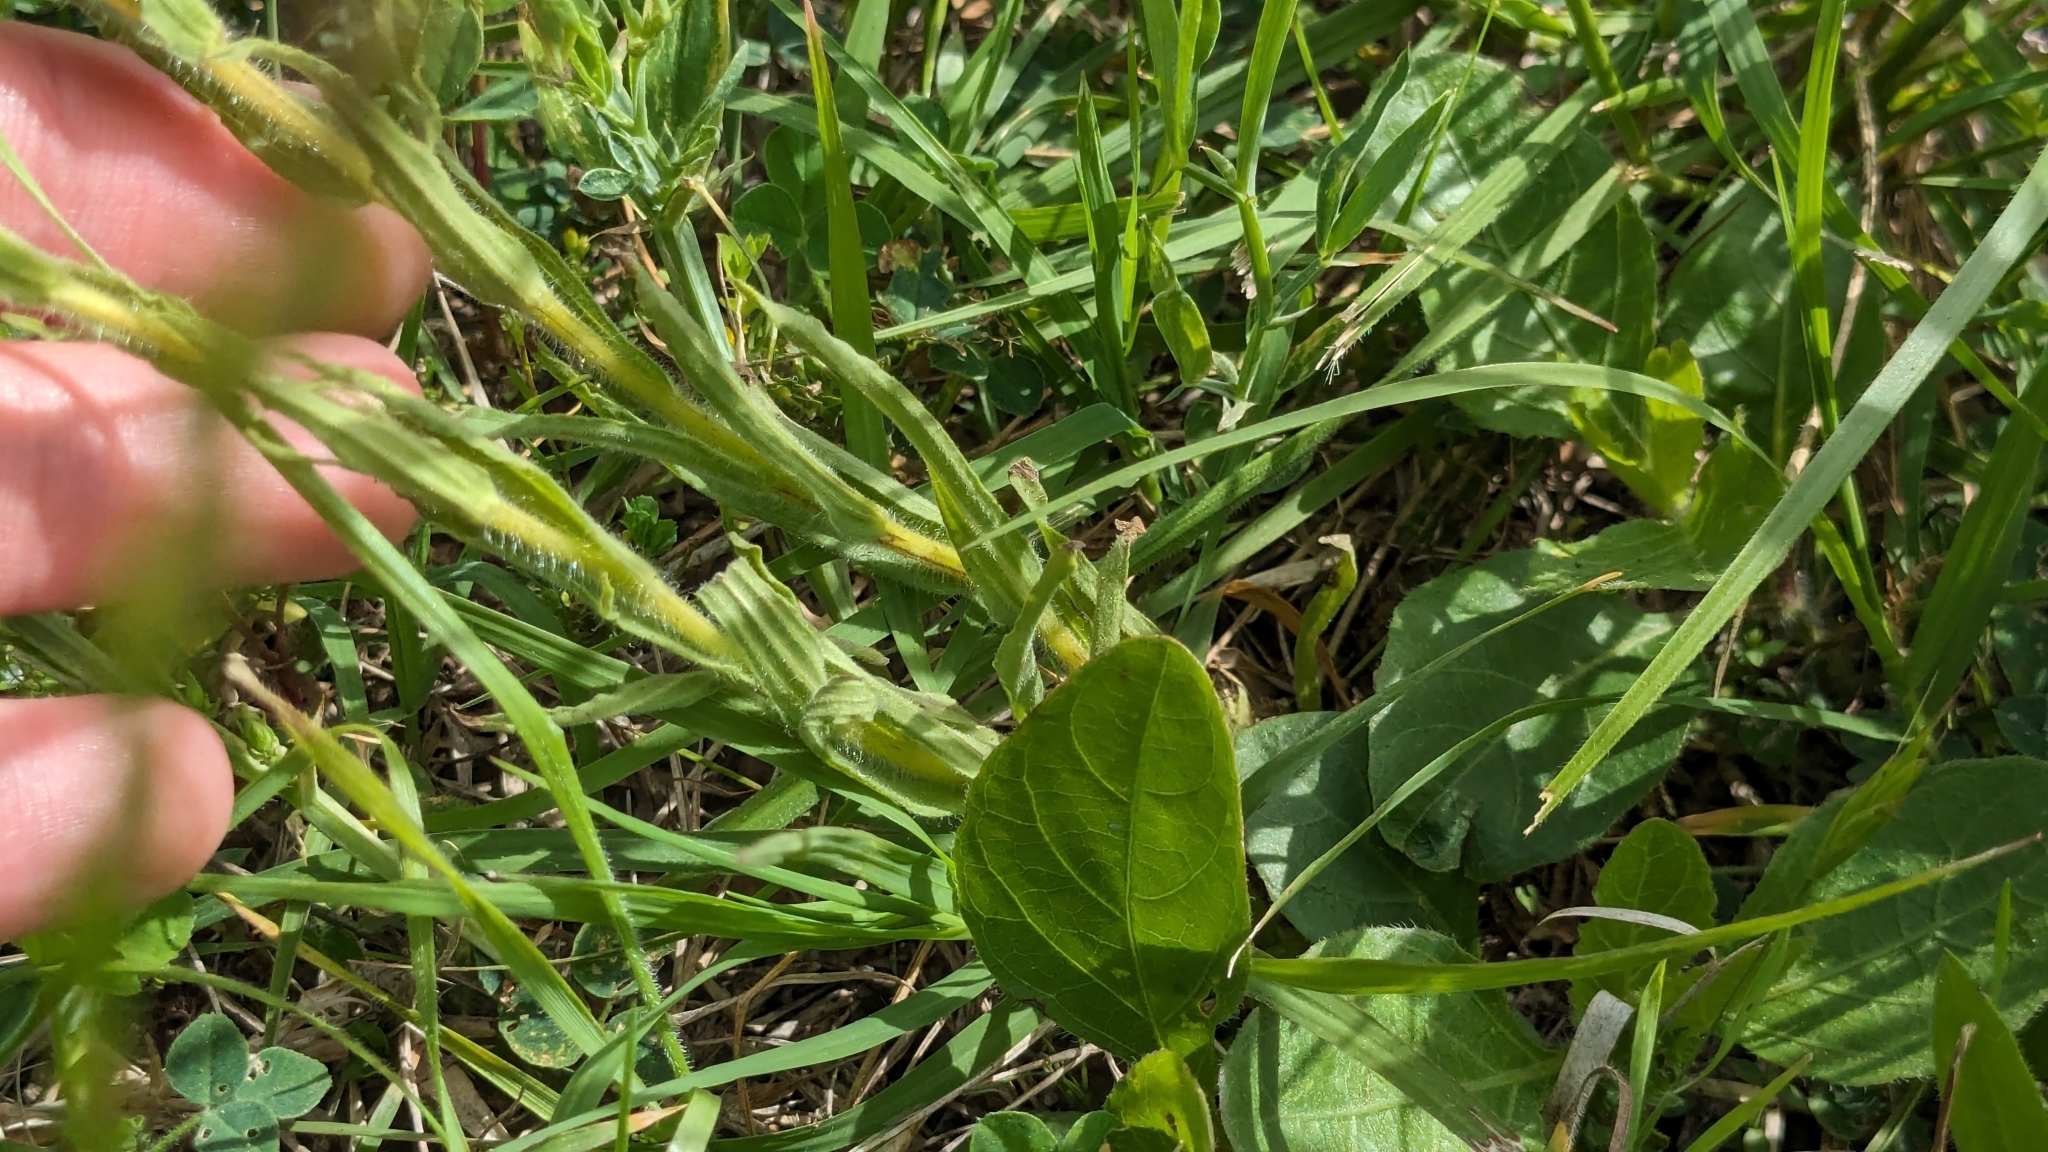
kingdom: Plantae
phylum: Tracheophyta
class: Magnoliopsida
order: Lamiales
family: Orobanchaceae
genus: Castilleja
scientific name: Castilleja indivisa
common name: Texas paintbrush
